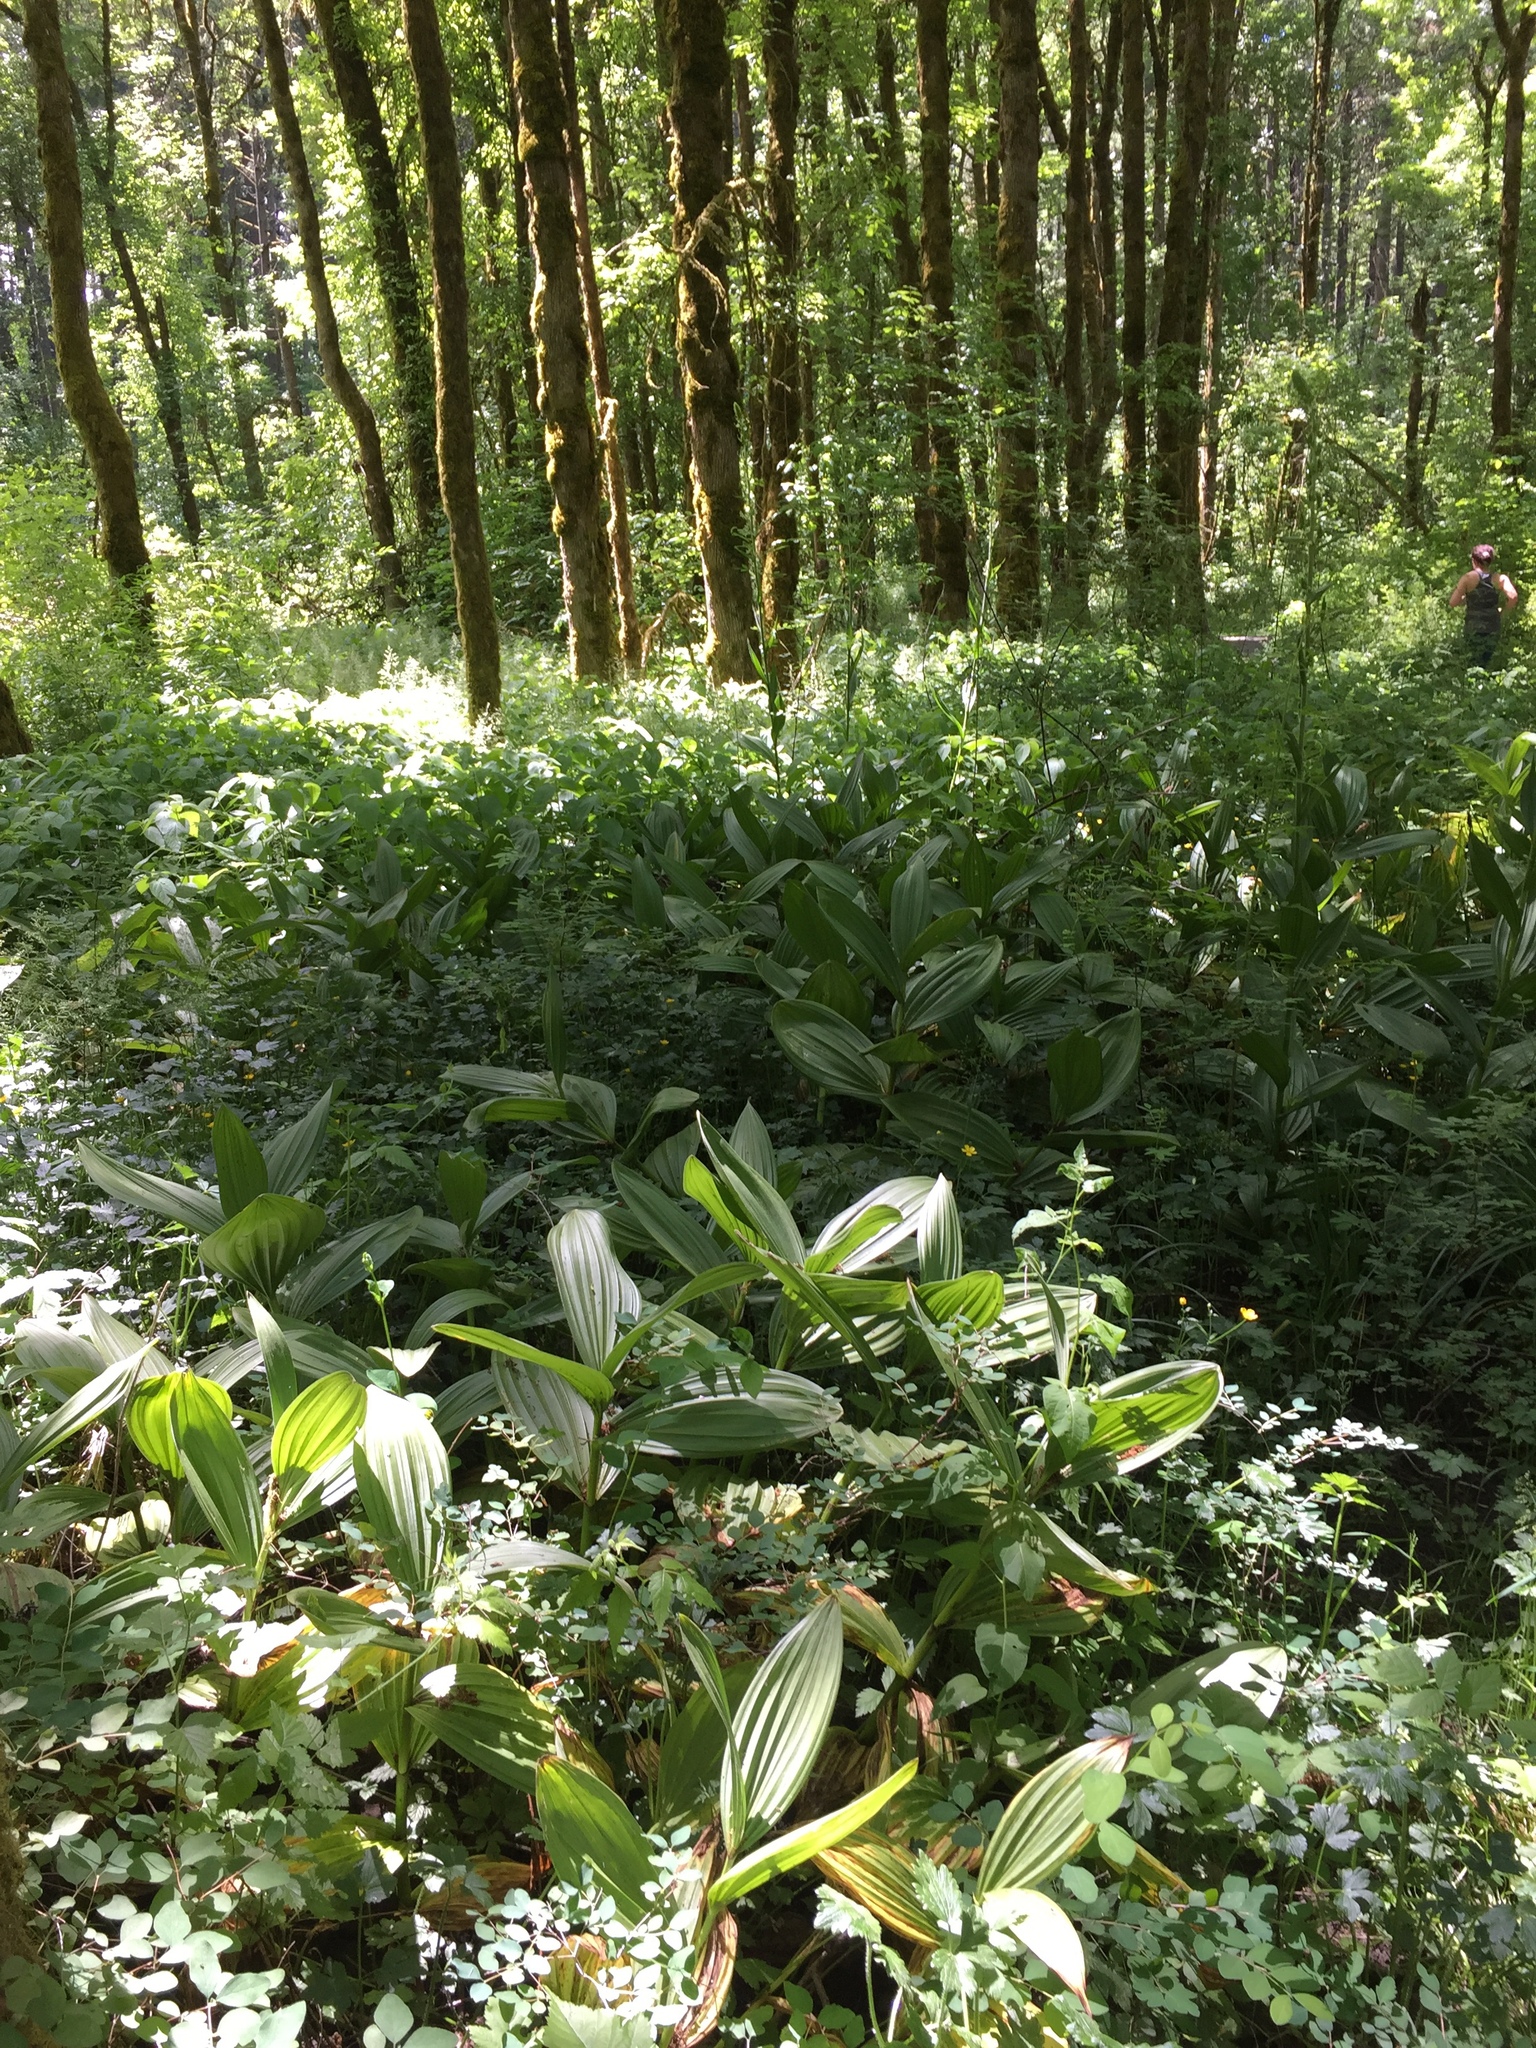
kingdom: Plantae
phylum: Tracheophyta
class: Liliopsida
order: Liliales
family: Melanthiaceae
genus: Veratrum
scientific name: Veratrum californicum
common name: California veratrum
